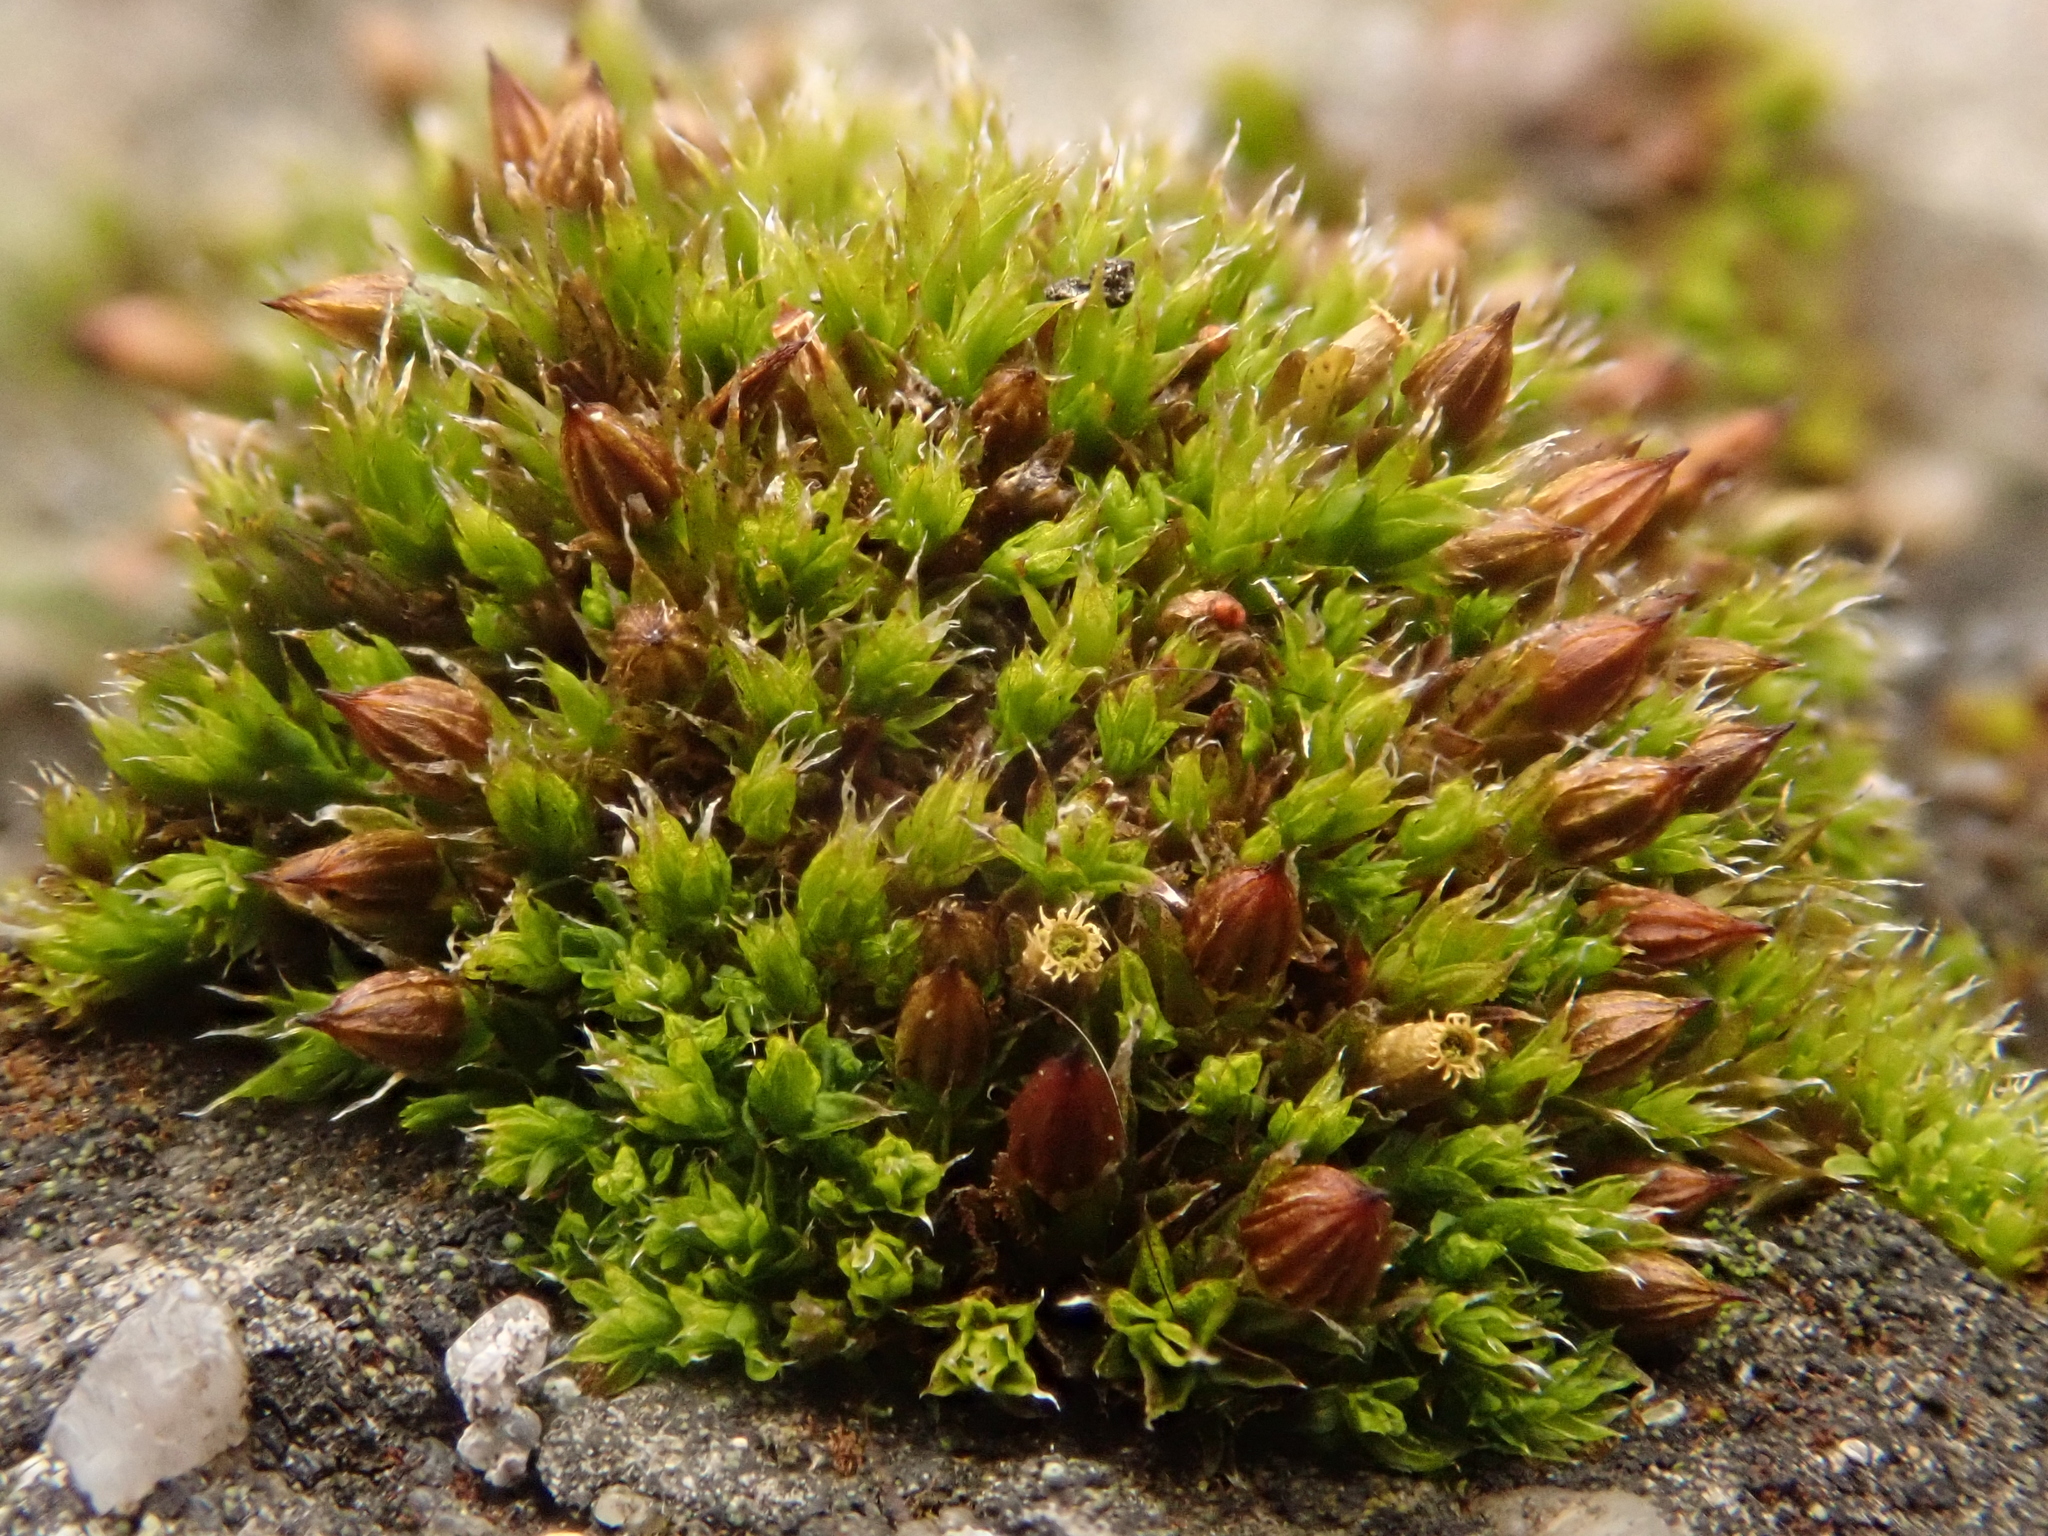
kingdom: Plantae
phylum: Bryophyta
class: Bryopsida
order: Orthotrichales
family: Orthotrichaceae
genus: Orthotrichum
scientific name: Orthotrichum diaphanum
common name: White-tipped bristle-moss
